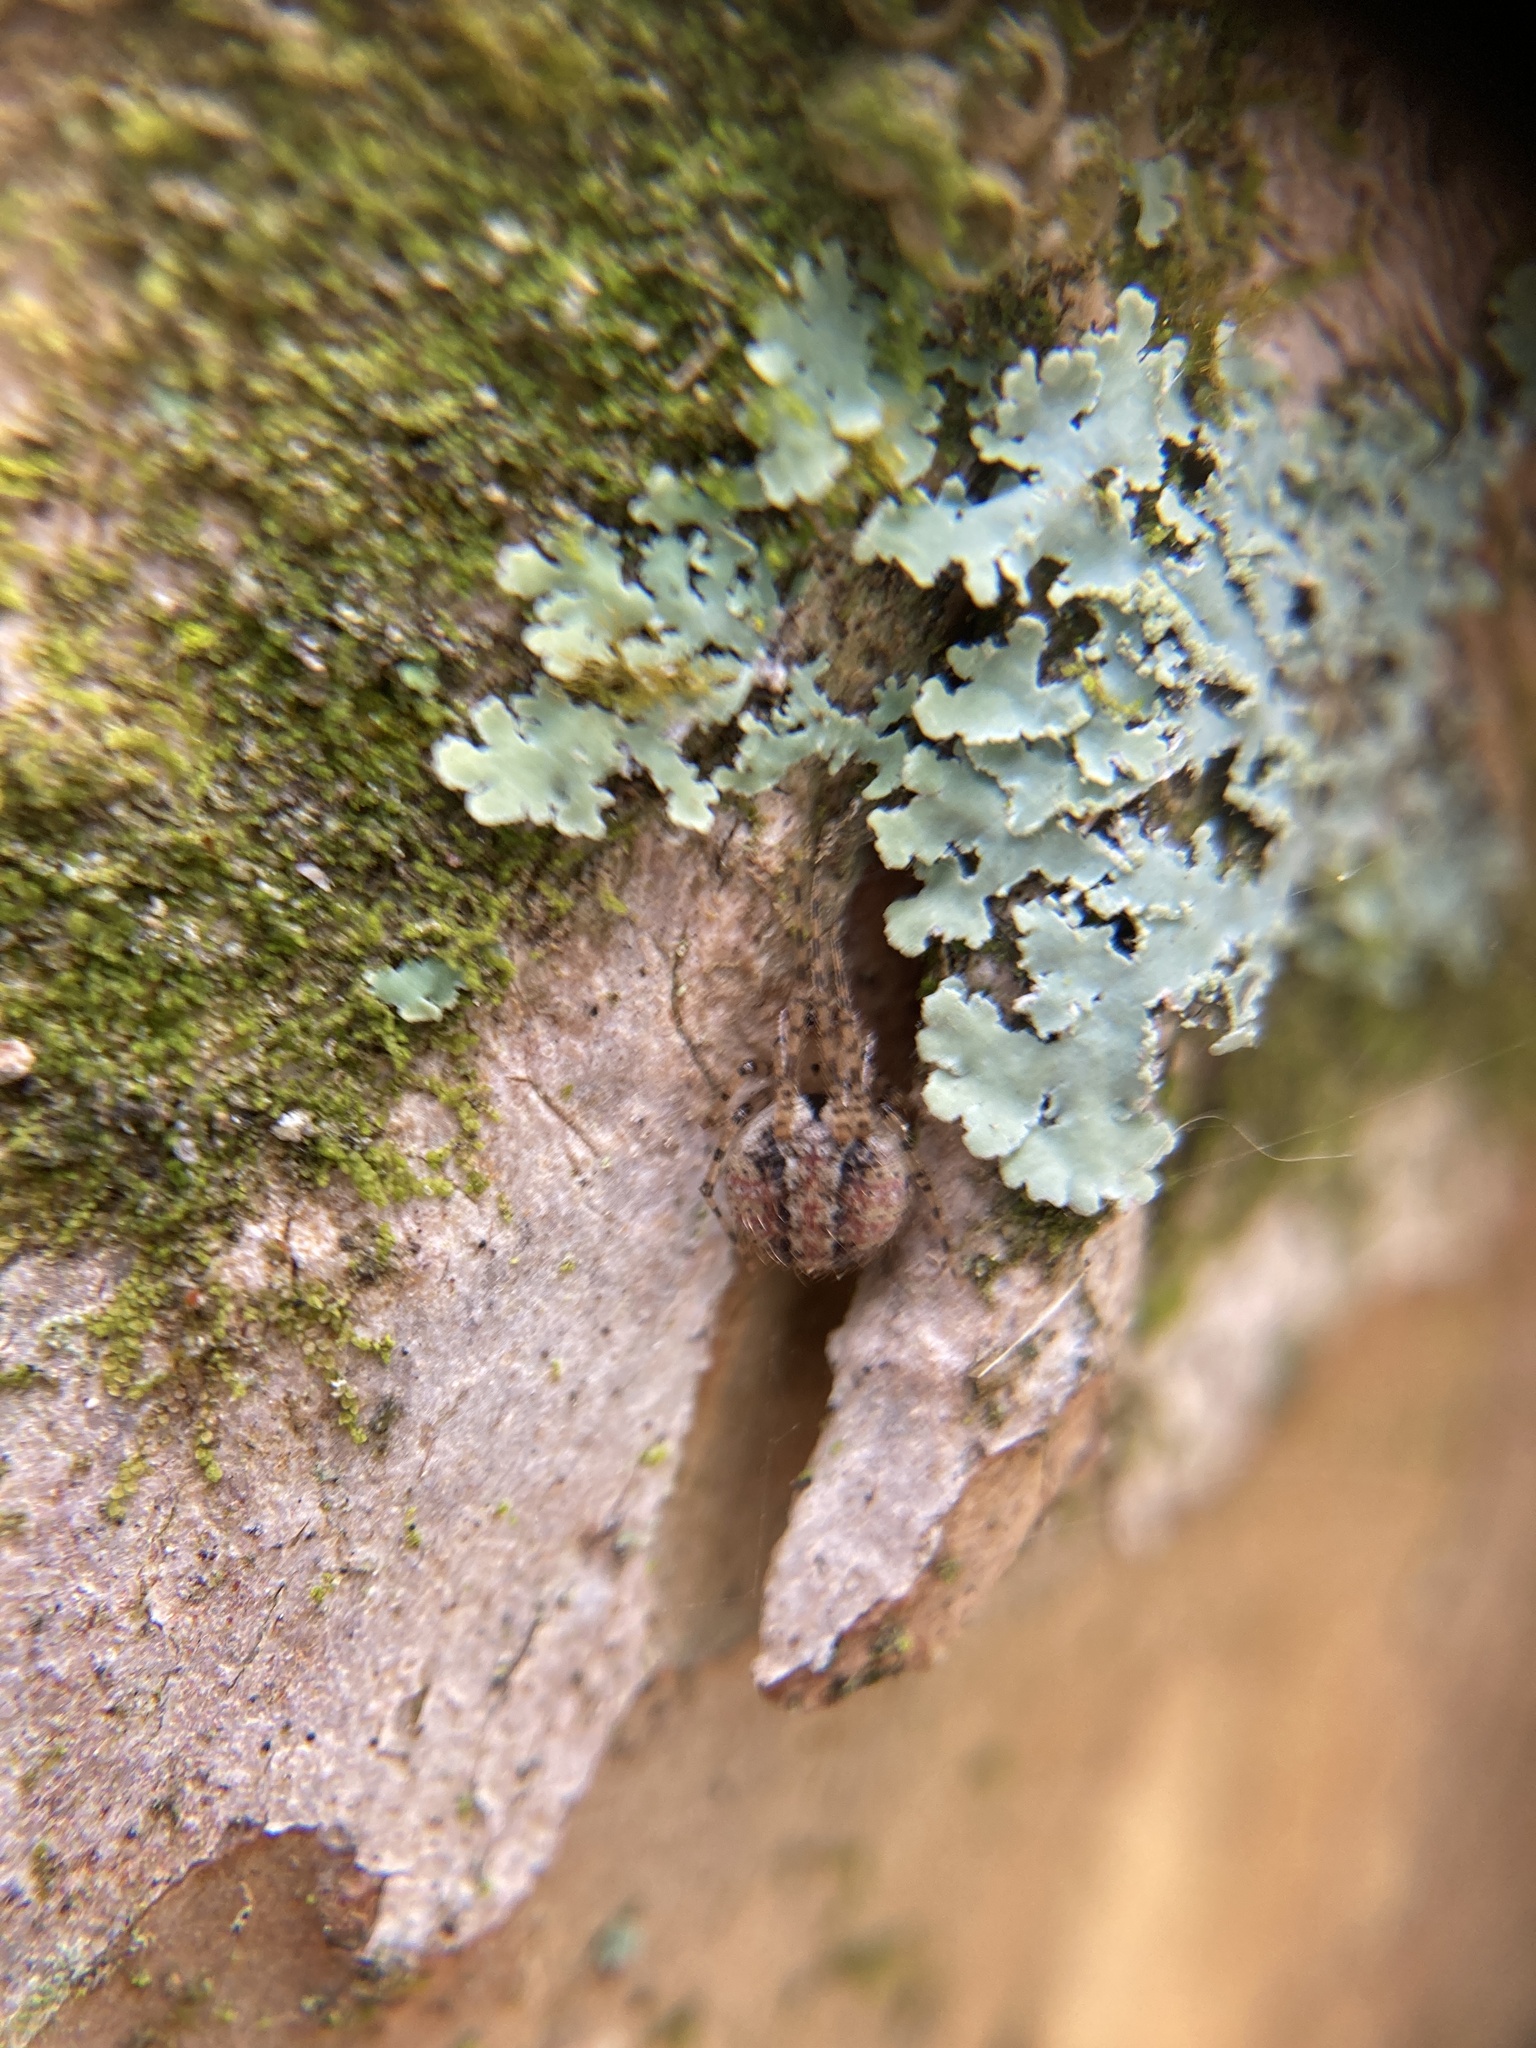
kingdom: Animalia
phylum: Arthropoda
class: Arachnida
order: Araneae
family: Theridiidae
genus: Platnickina
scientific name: Platnickina mneon
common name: Theridiid spidereater
